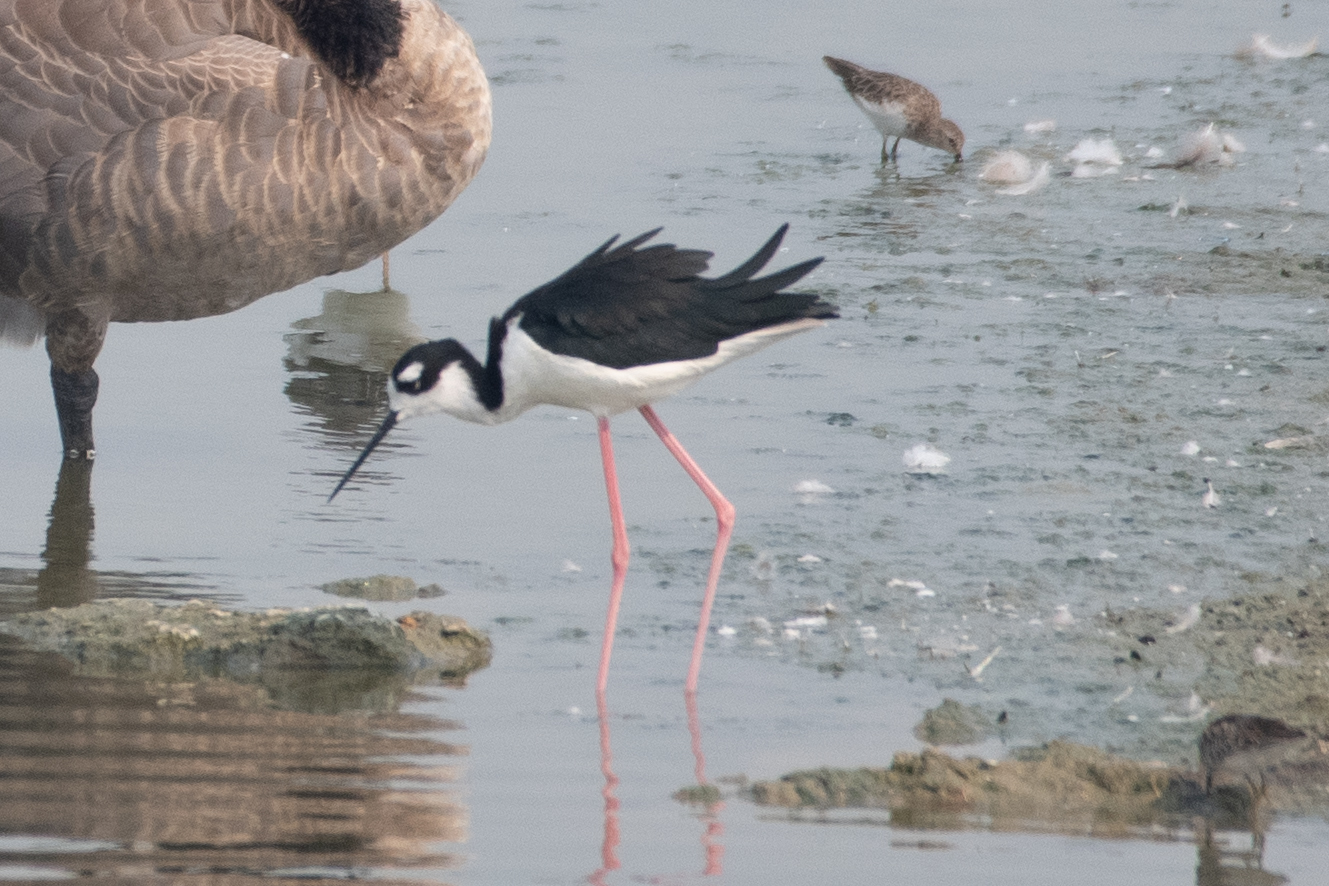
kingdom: Animalia
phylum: Chordata
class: Aves
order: Charadriiformes
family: Recurvirostridae
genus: Himantopus
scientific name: Himantopus mexicanus
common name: Black-necked stilt
